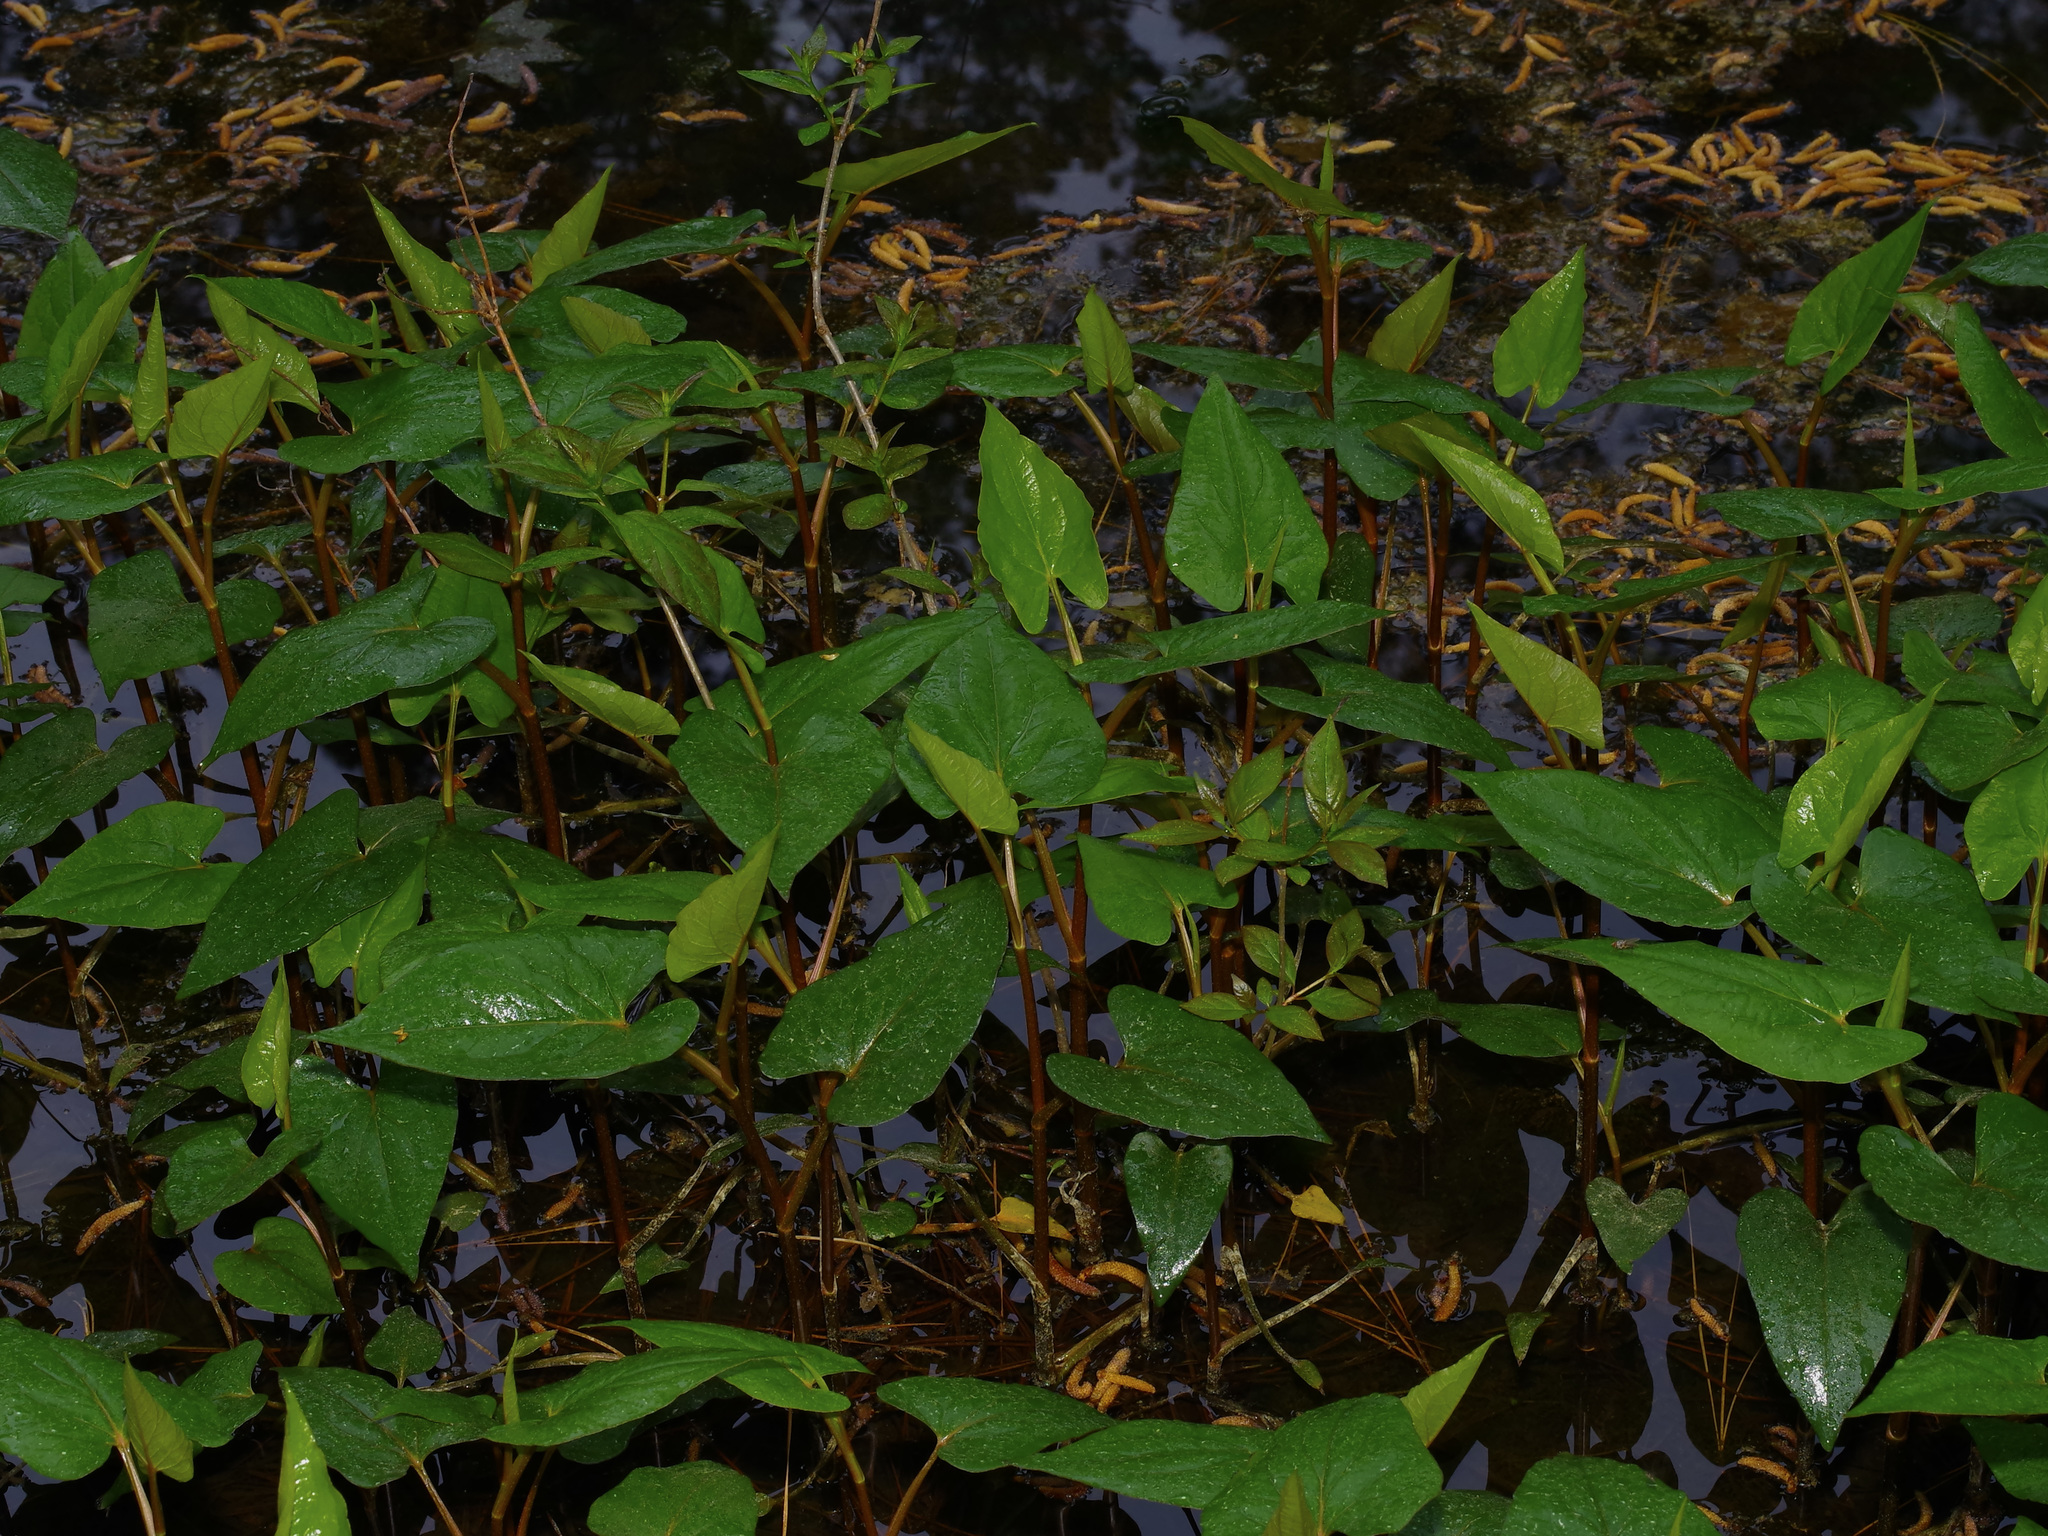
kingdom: Plantae
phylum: Tracheophyta
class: Magnoliopsida
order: Piperales
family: Saururaceae
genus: Saururus
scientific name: Saururus cernuus
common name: Lizard's-tail
